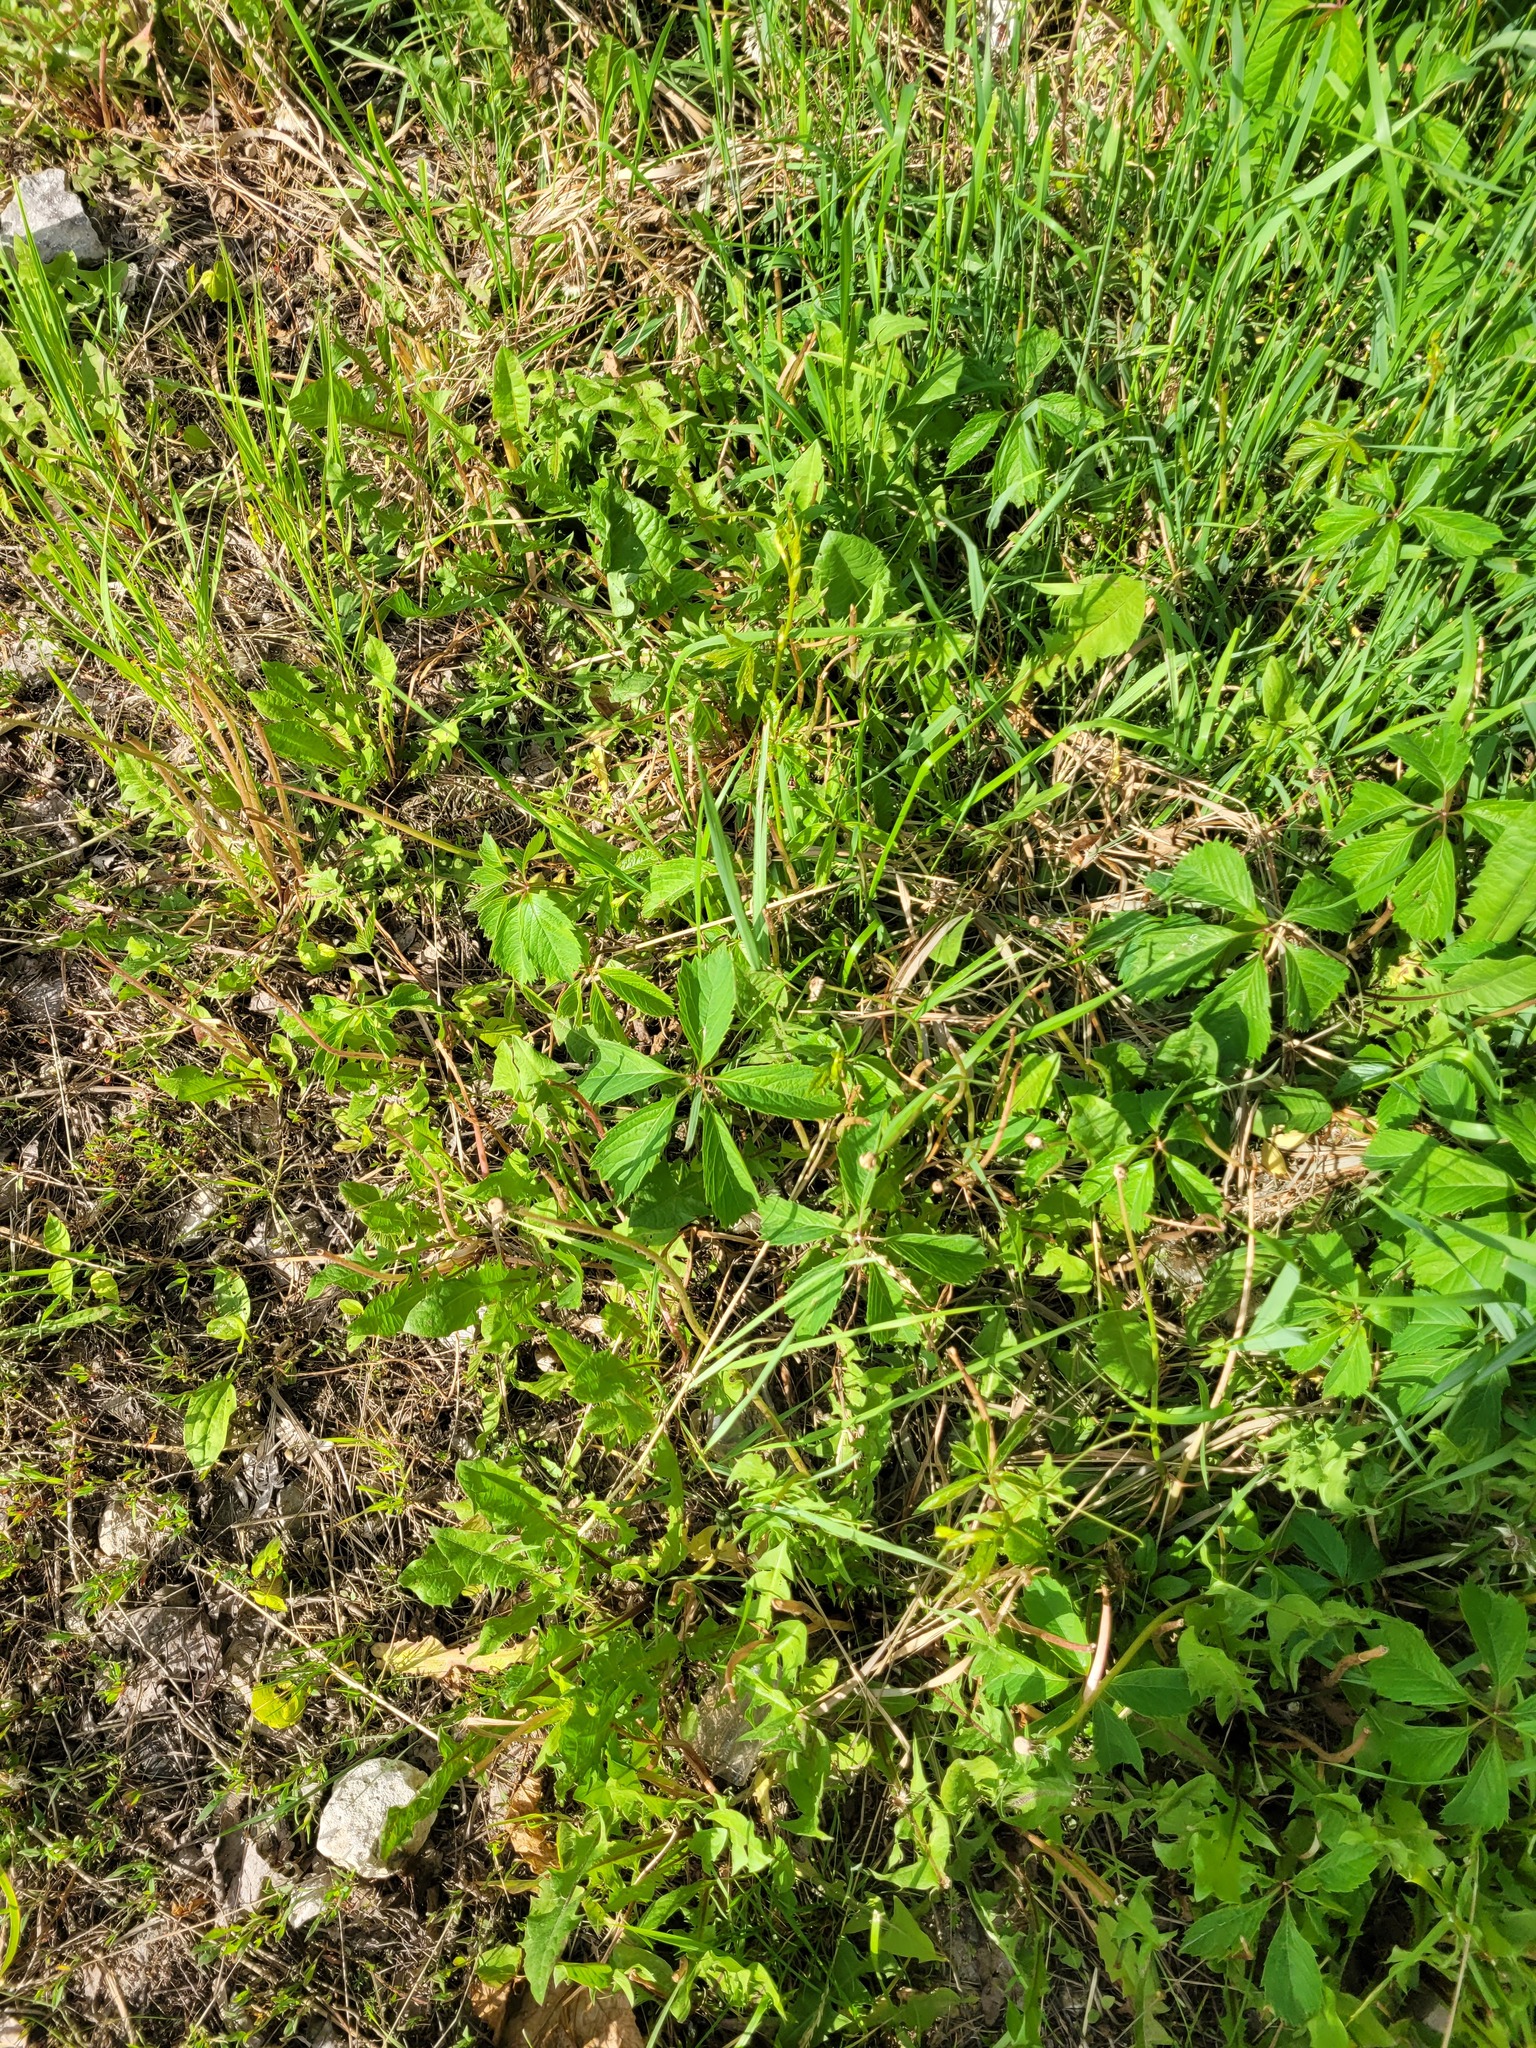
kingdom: Plantae
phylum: Tracheophyta
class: Magnoliopsida
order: Vitales
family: Vitaceae
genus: Parthenocissus
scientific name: Parthenocissus inserta
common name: False virginia-creeper
